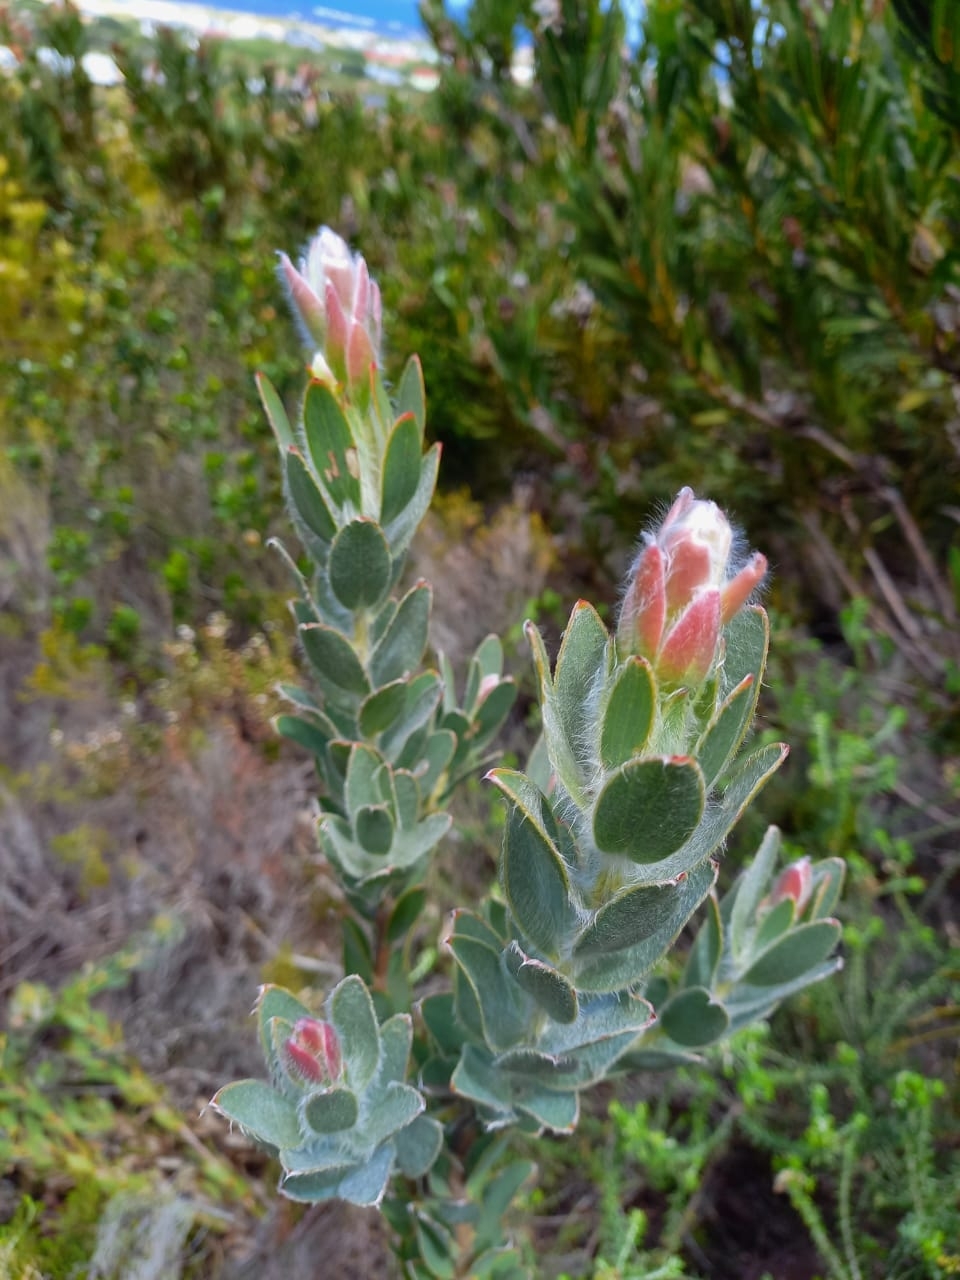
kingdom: Plantae
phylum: Tracheophyta
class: Magnoliopsida
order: Proteales
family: Proteaceae
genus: Leucadendron
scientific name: Leucadendron nervosum
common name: Silky-ruff conebush
